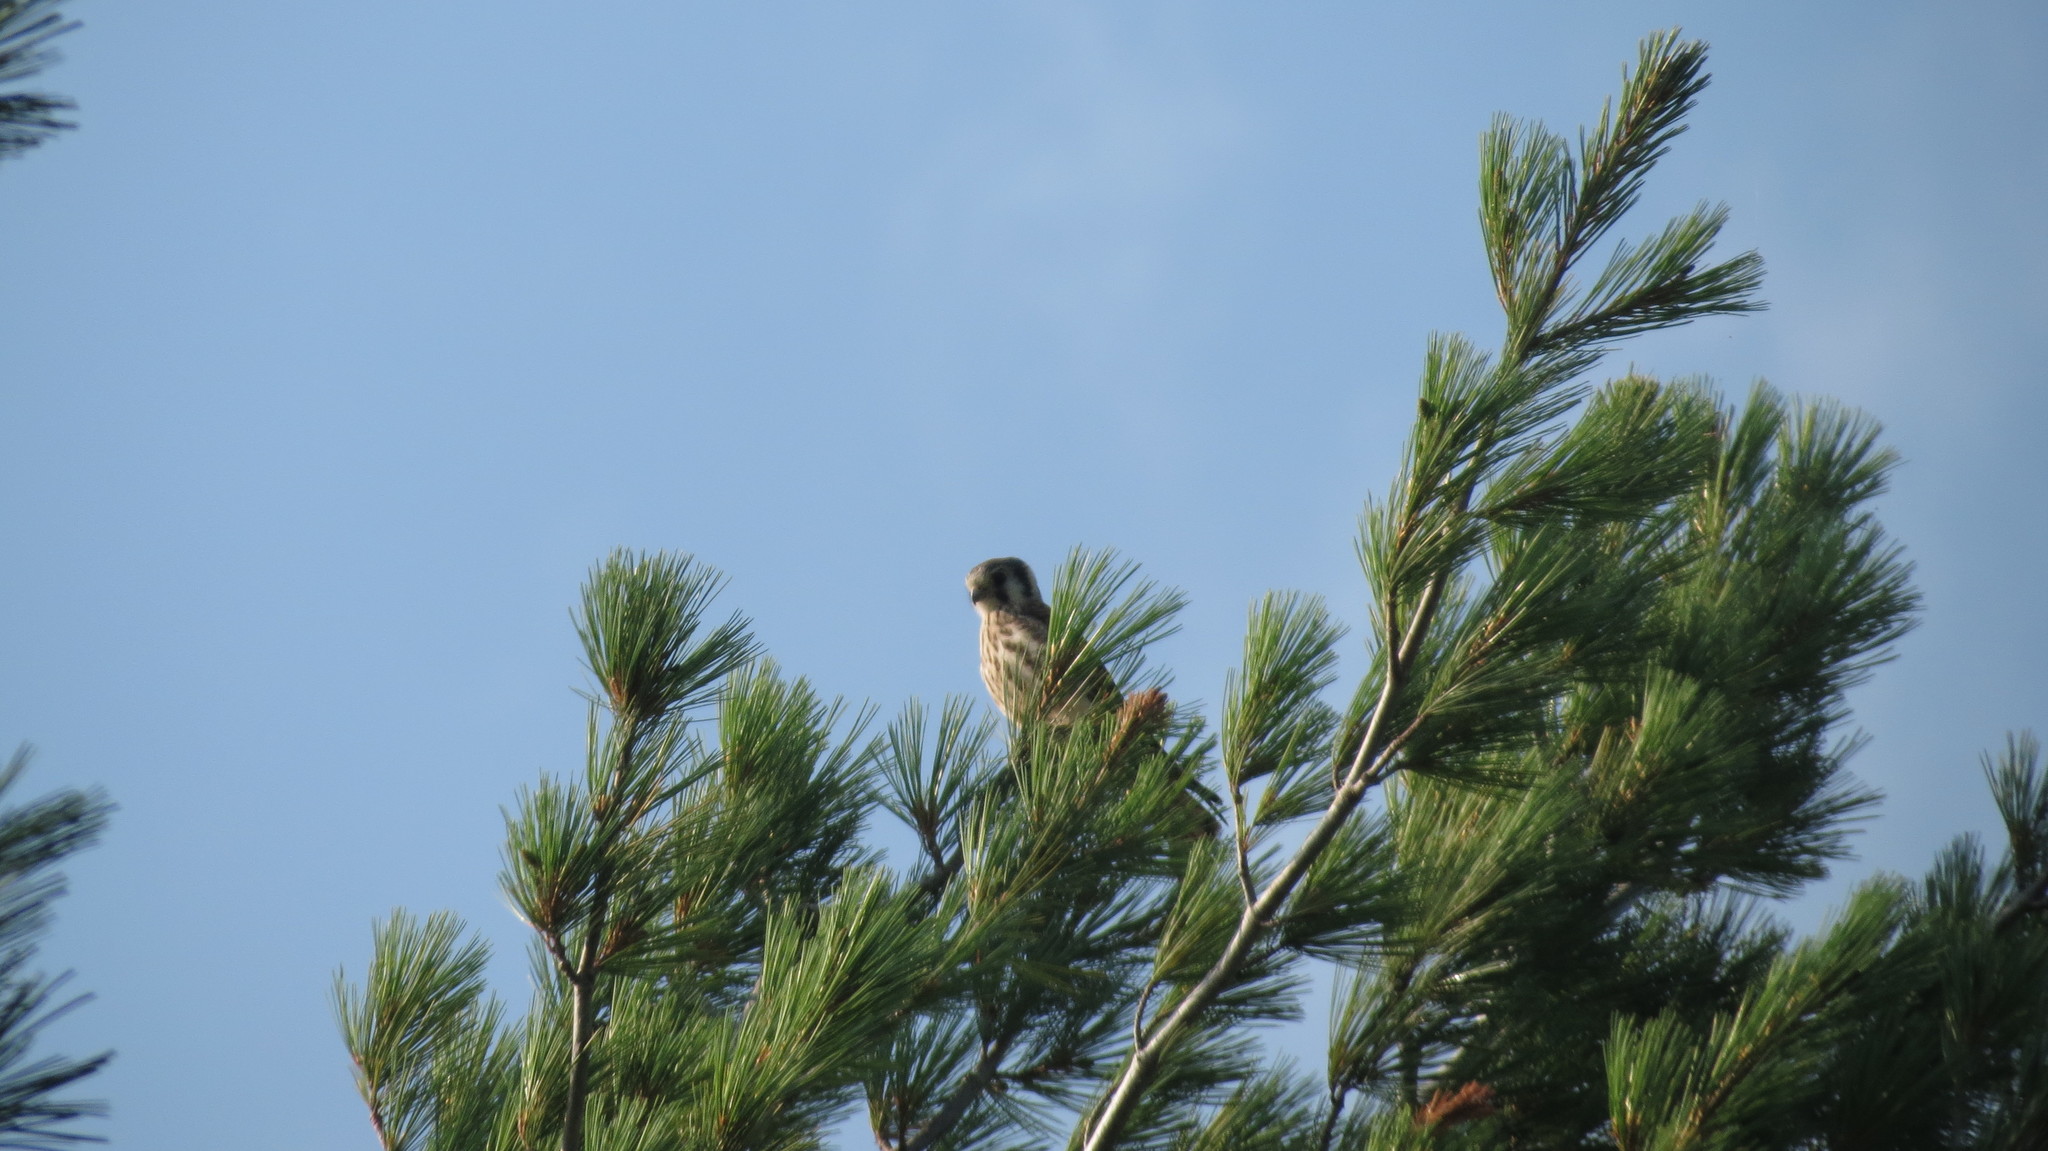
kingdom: Animalia
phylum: Chordata
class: Aves
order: Falconiformes
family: Falconidae
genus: Falco
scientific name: Falco sparverius
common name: American kestrel
